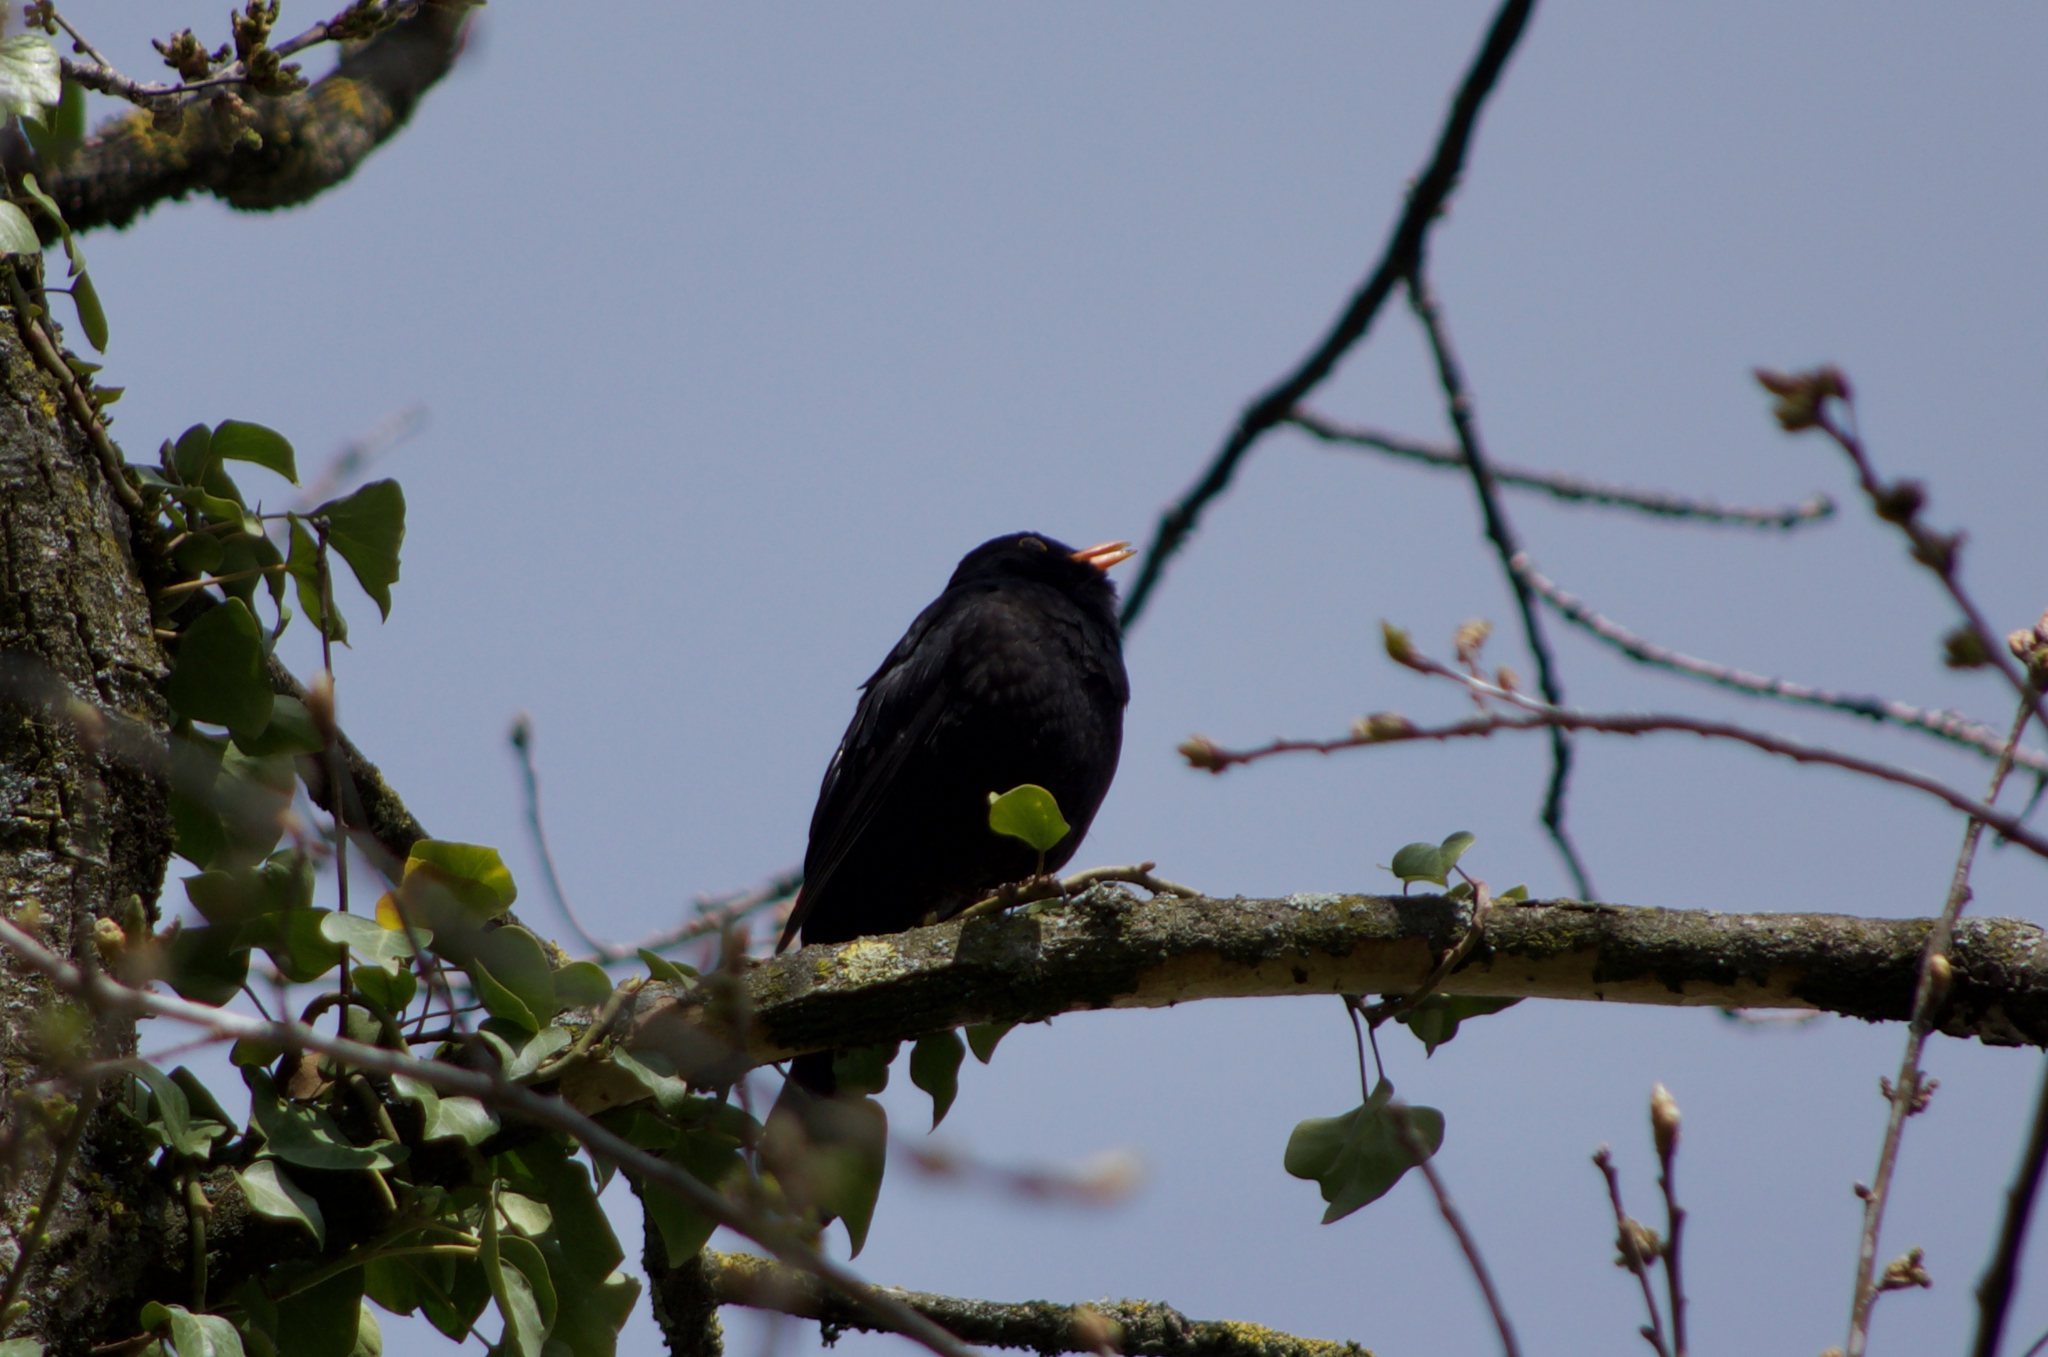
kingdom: Animalia
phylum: Chordata
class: Aves
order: Passeriformes
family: Turdidae
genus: Turdus
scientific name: Turdus merula
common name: Common blackbird
